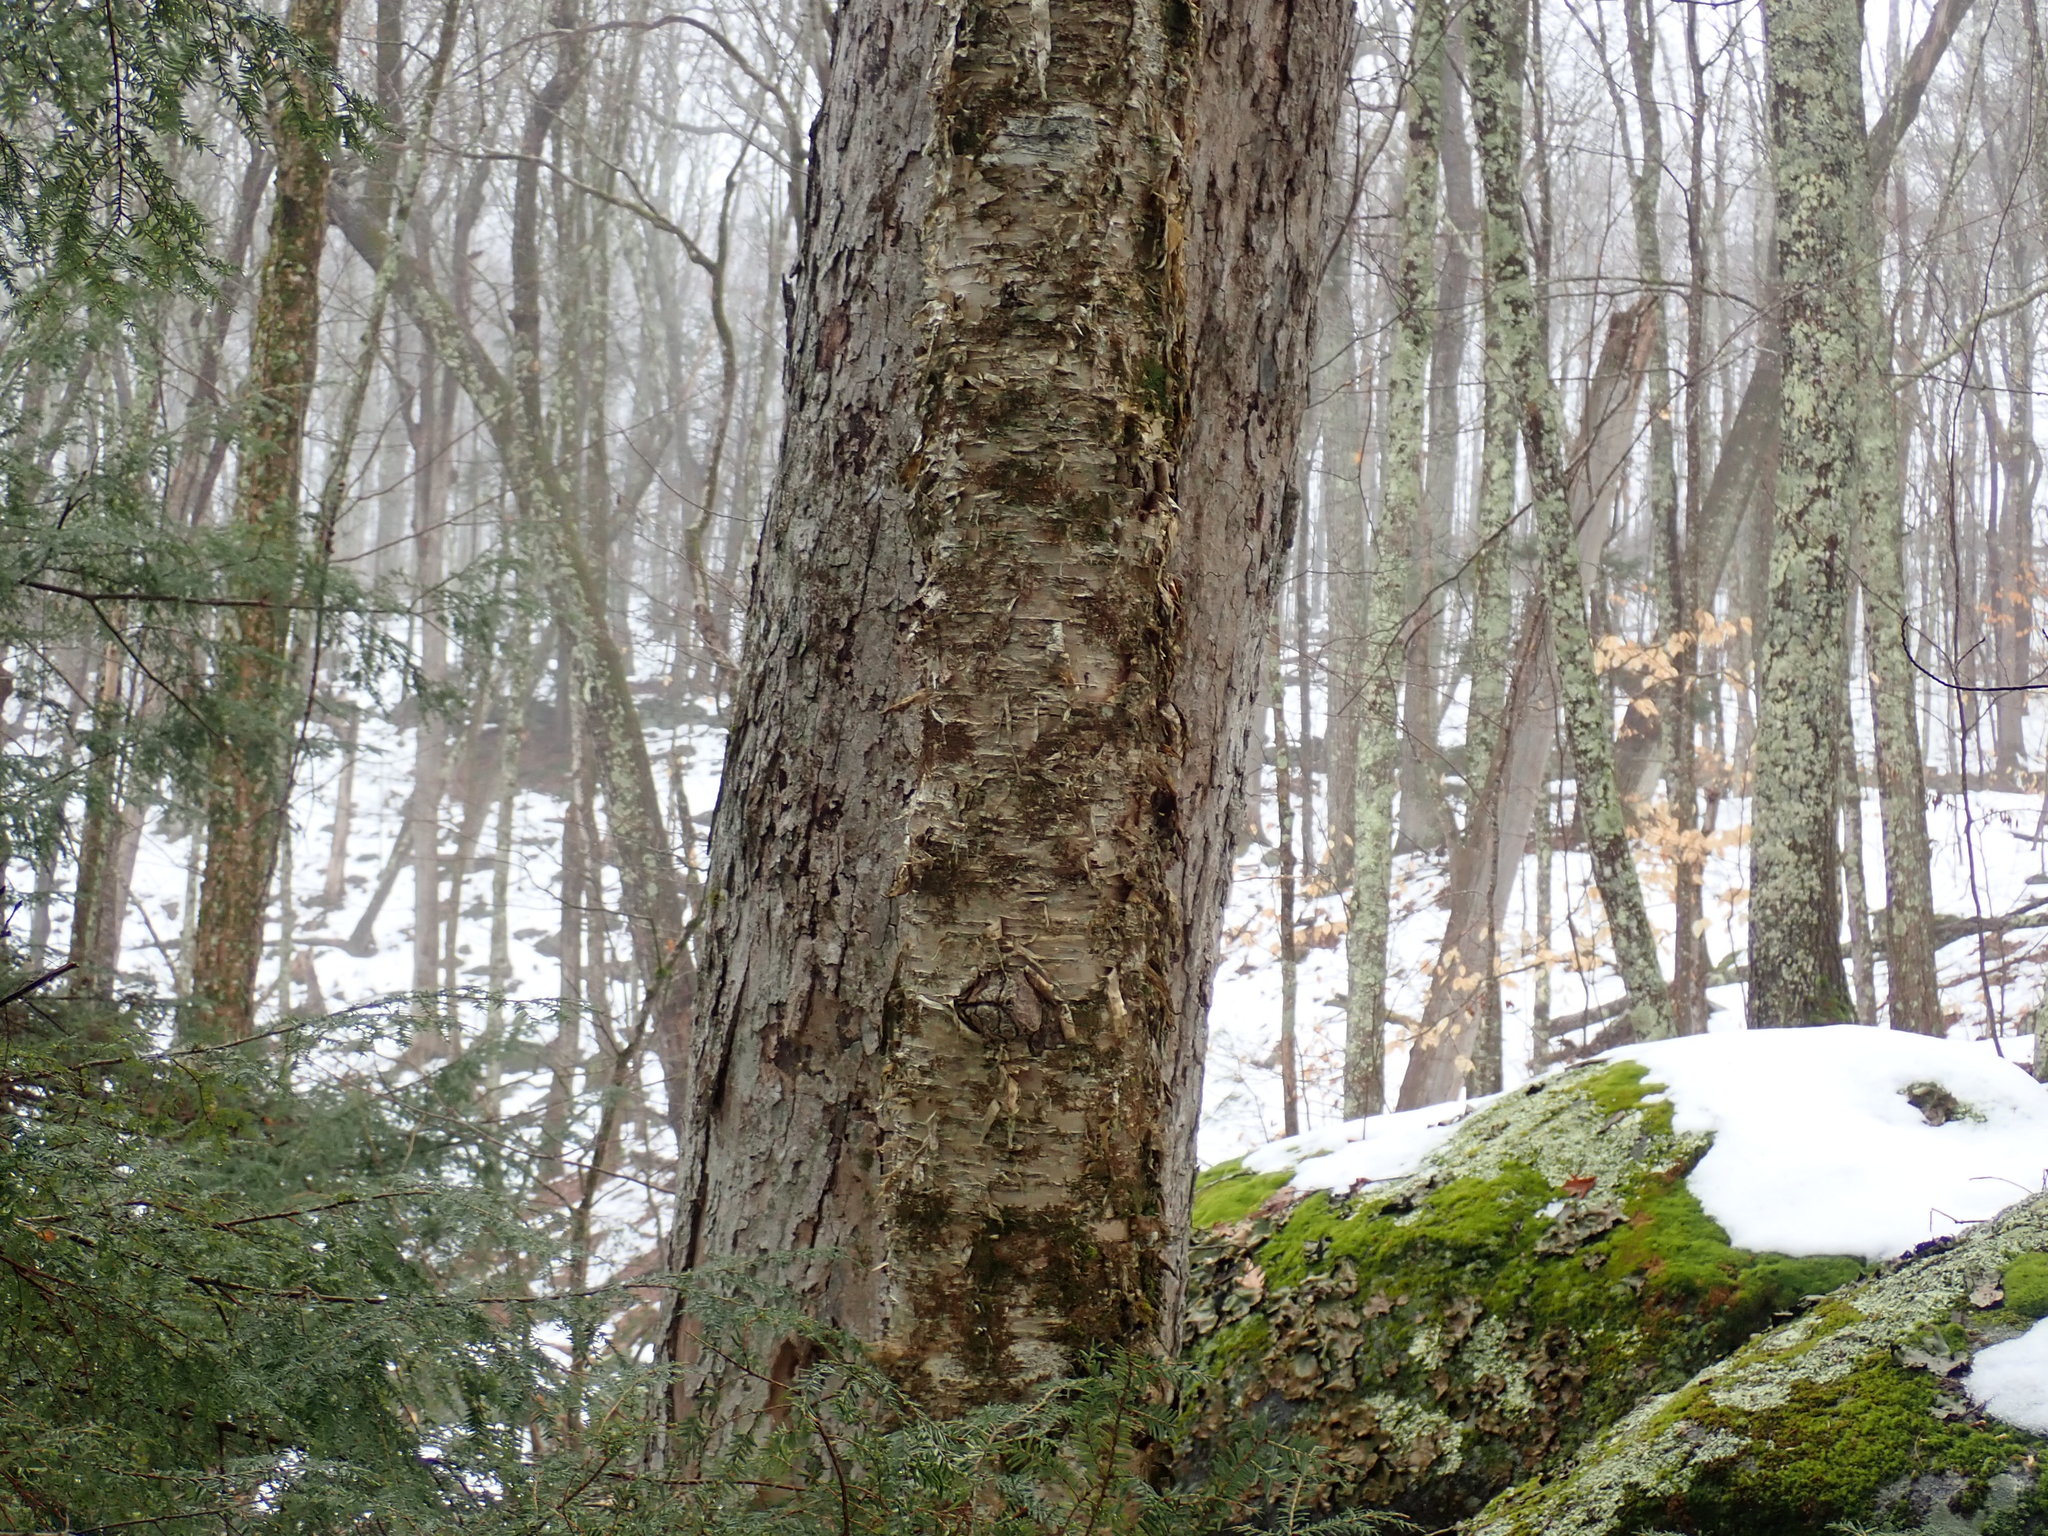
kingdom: Plantae
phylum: Tracheophyta
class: Magnoliopsida
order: Fagales
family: Betulaceae
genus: Betula
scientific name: Betula alleghaniensis
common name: Yellow birch
